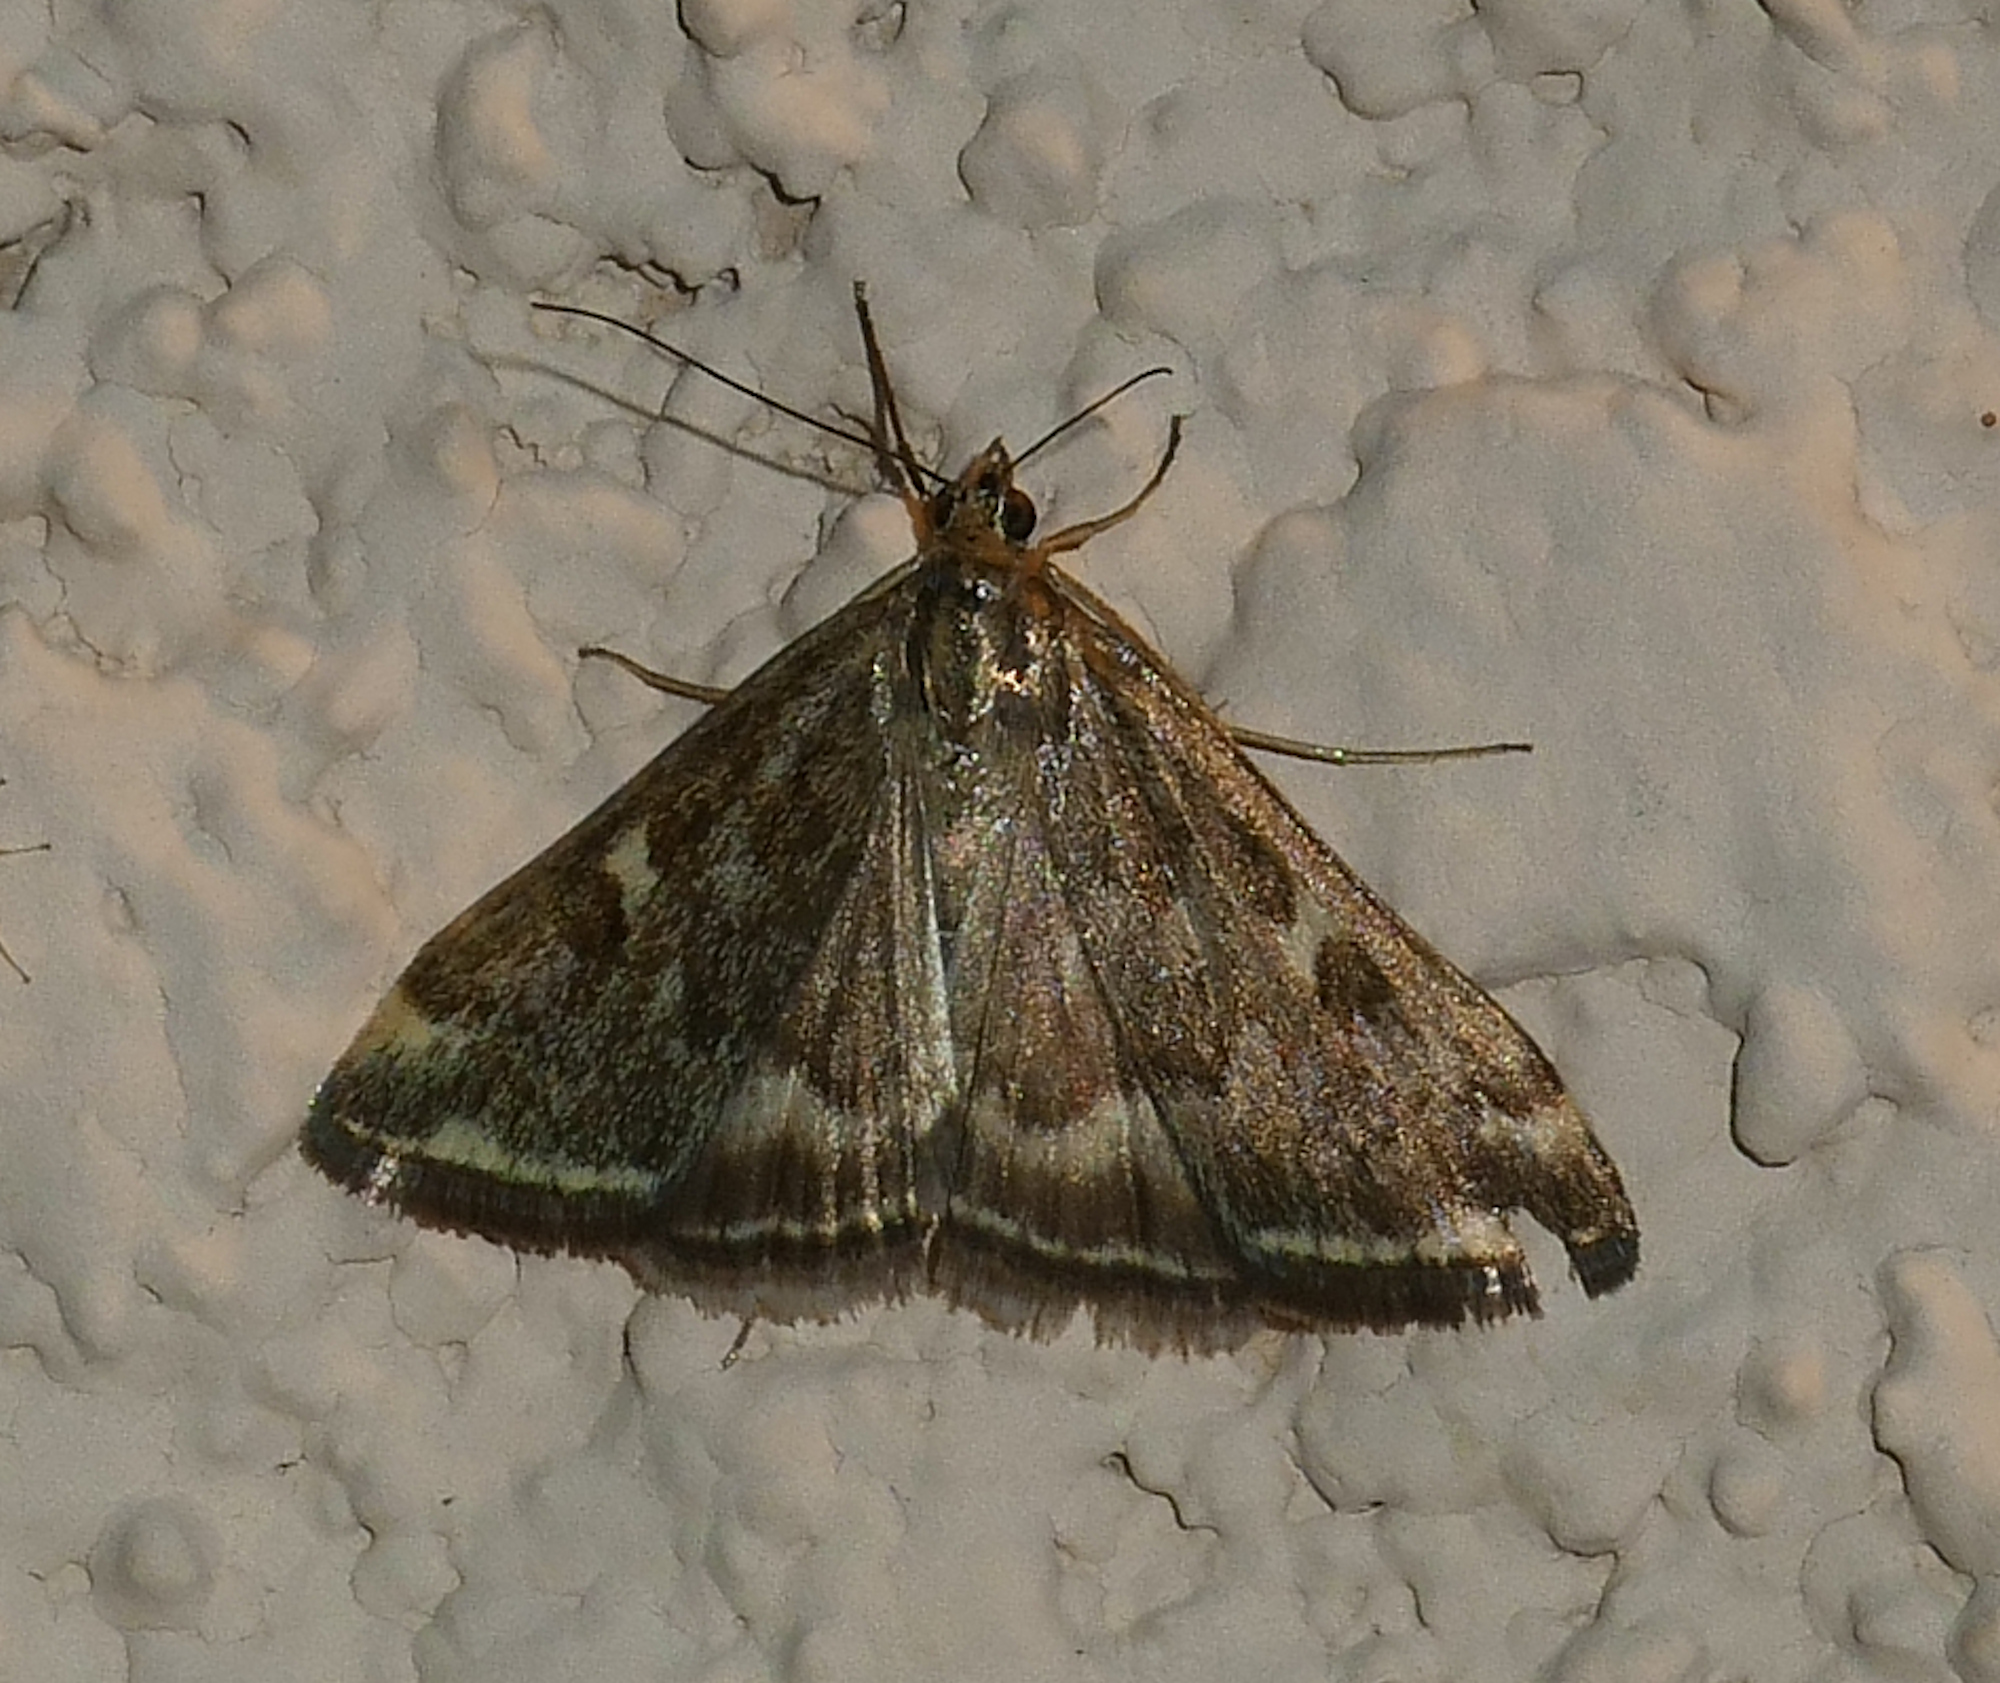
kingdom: Animalia
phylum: Arthropoda
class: Insecta
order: Lepidoptera
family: Crambidae
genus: Loxostege
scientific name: Loxostege
